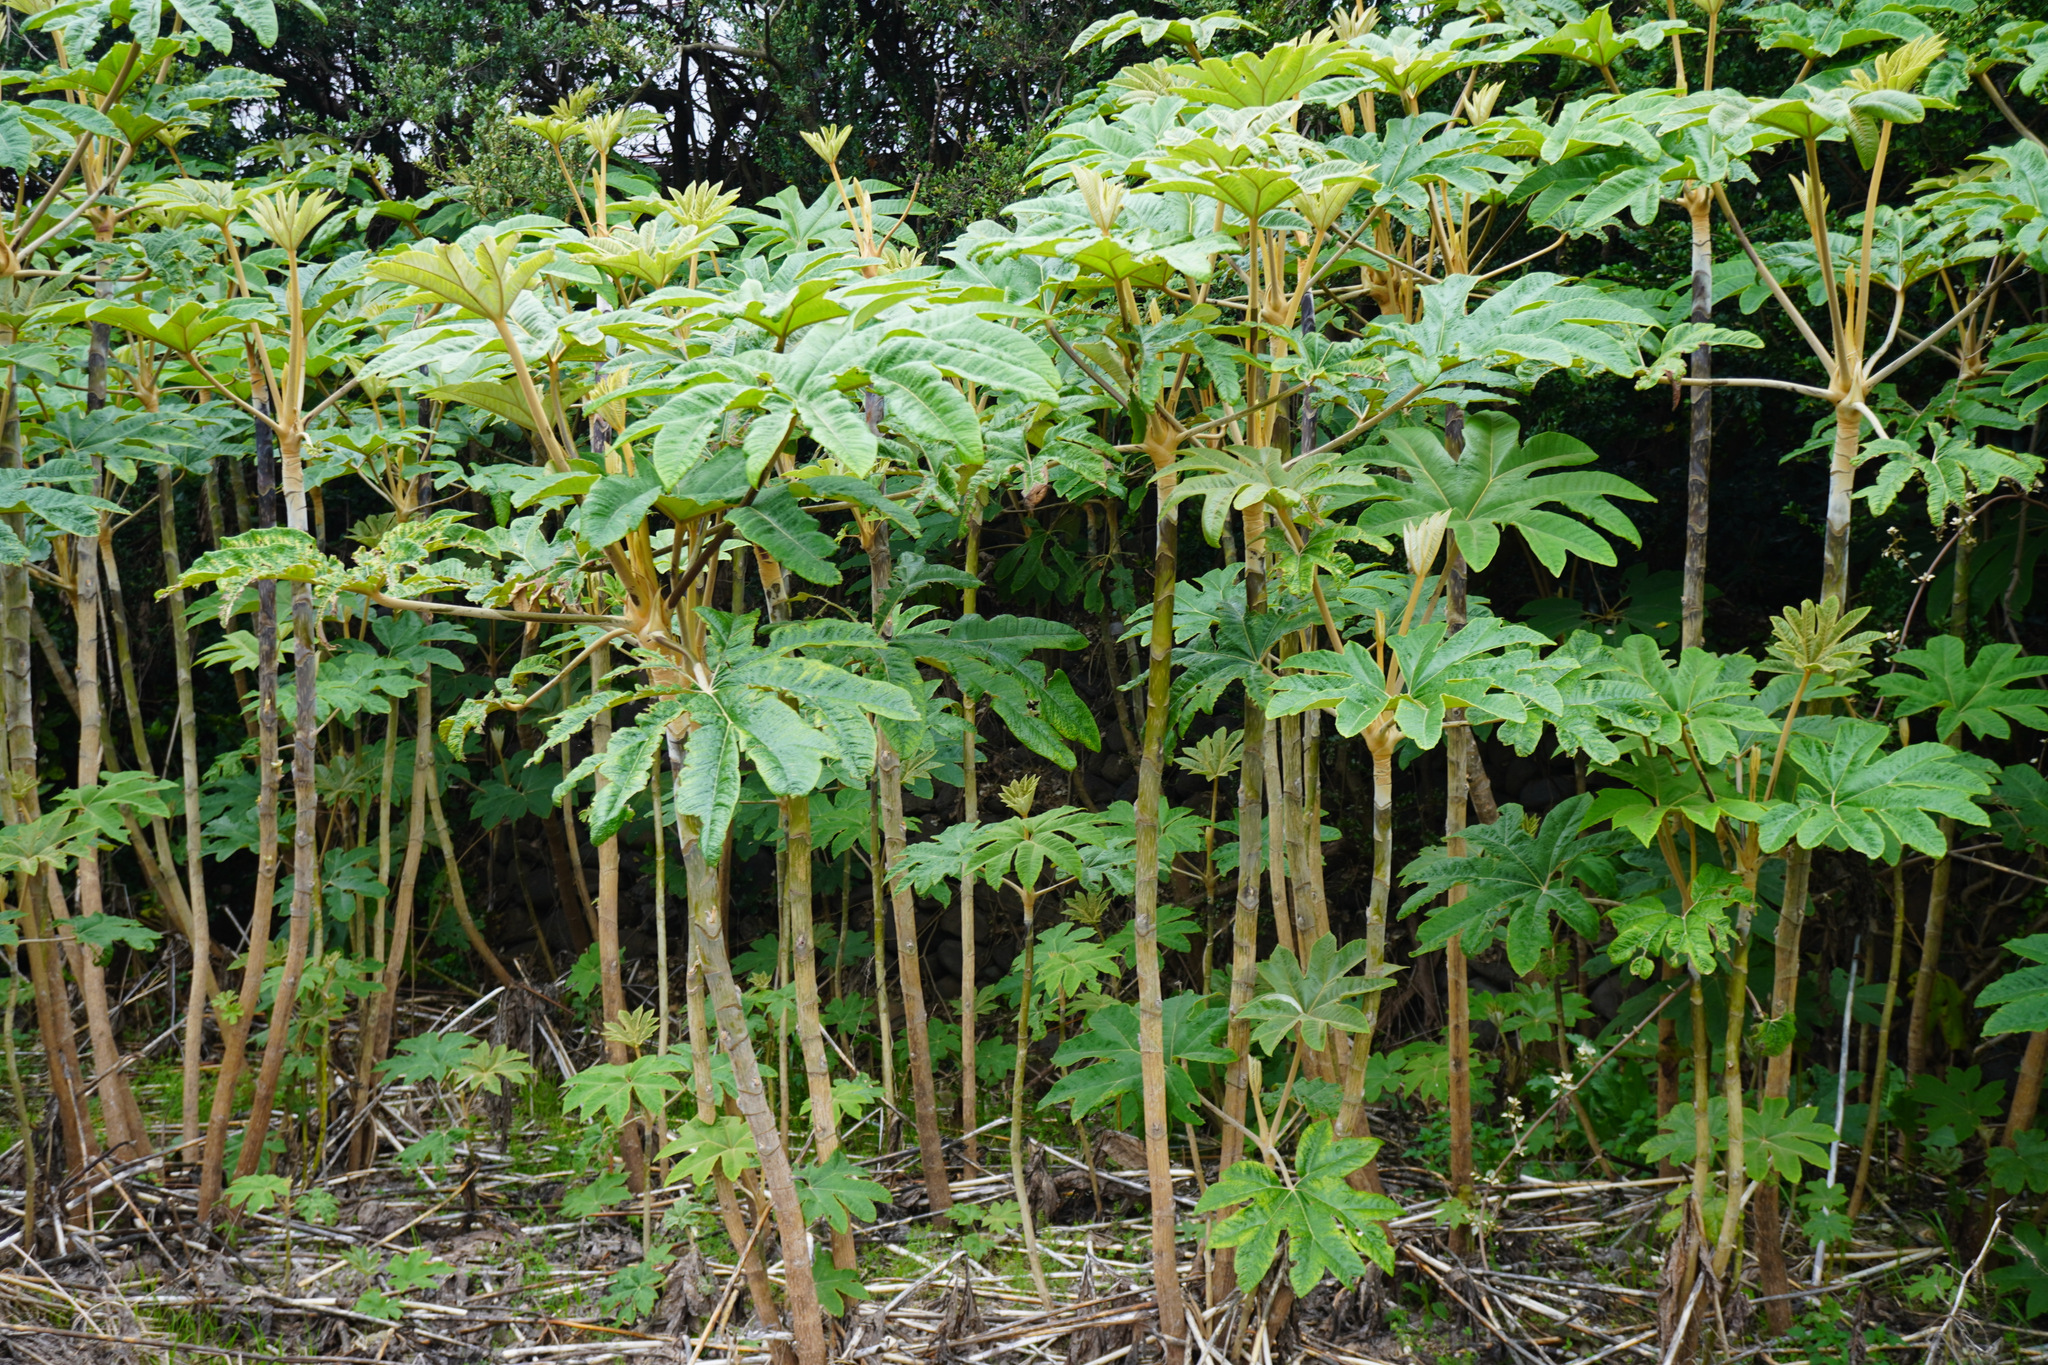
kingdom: Plantae
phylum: Tracheophyta
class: Magnoliopsida
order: Apiales
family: Araliaceae
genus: Tetrapanax
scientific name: Tetrapanax papyrifer
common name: Rice-paper plant
